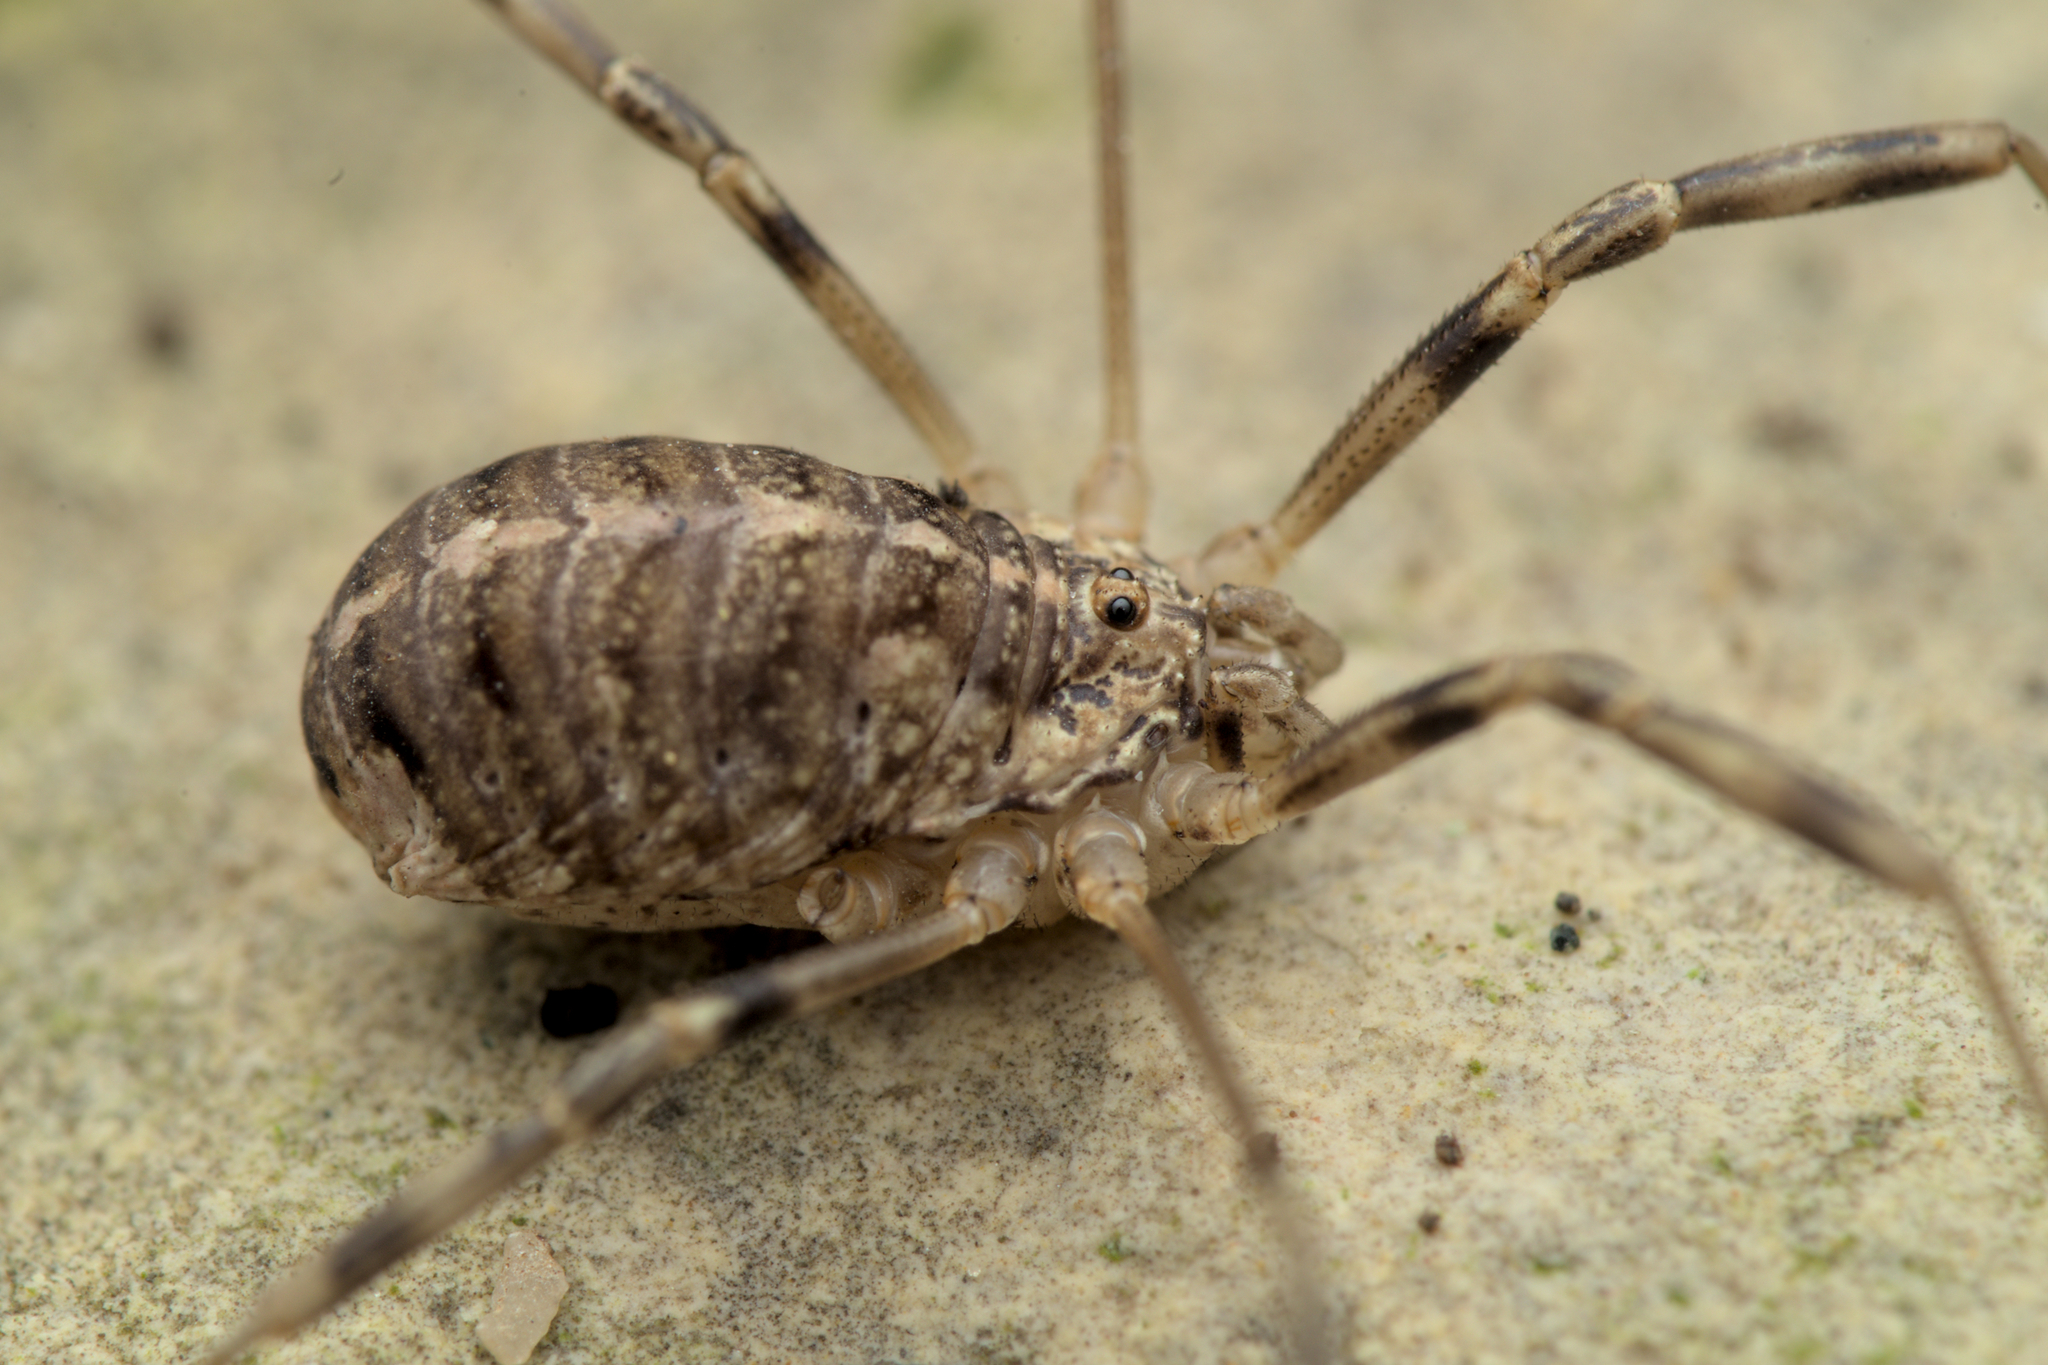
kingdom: Animalia
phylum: Arthropoda
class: Arachnida
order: Opiliones
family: Phalangiidae
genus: Opilio
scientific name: Opilio saxatilis
